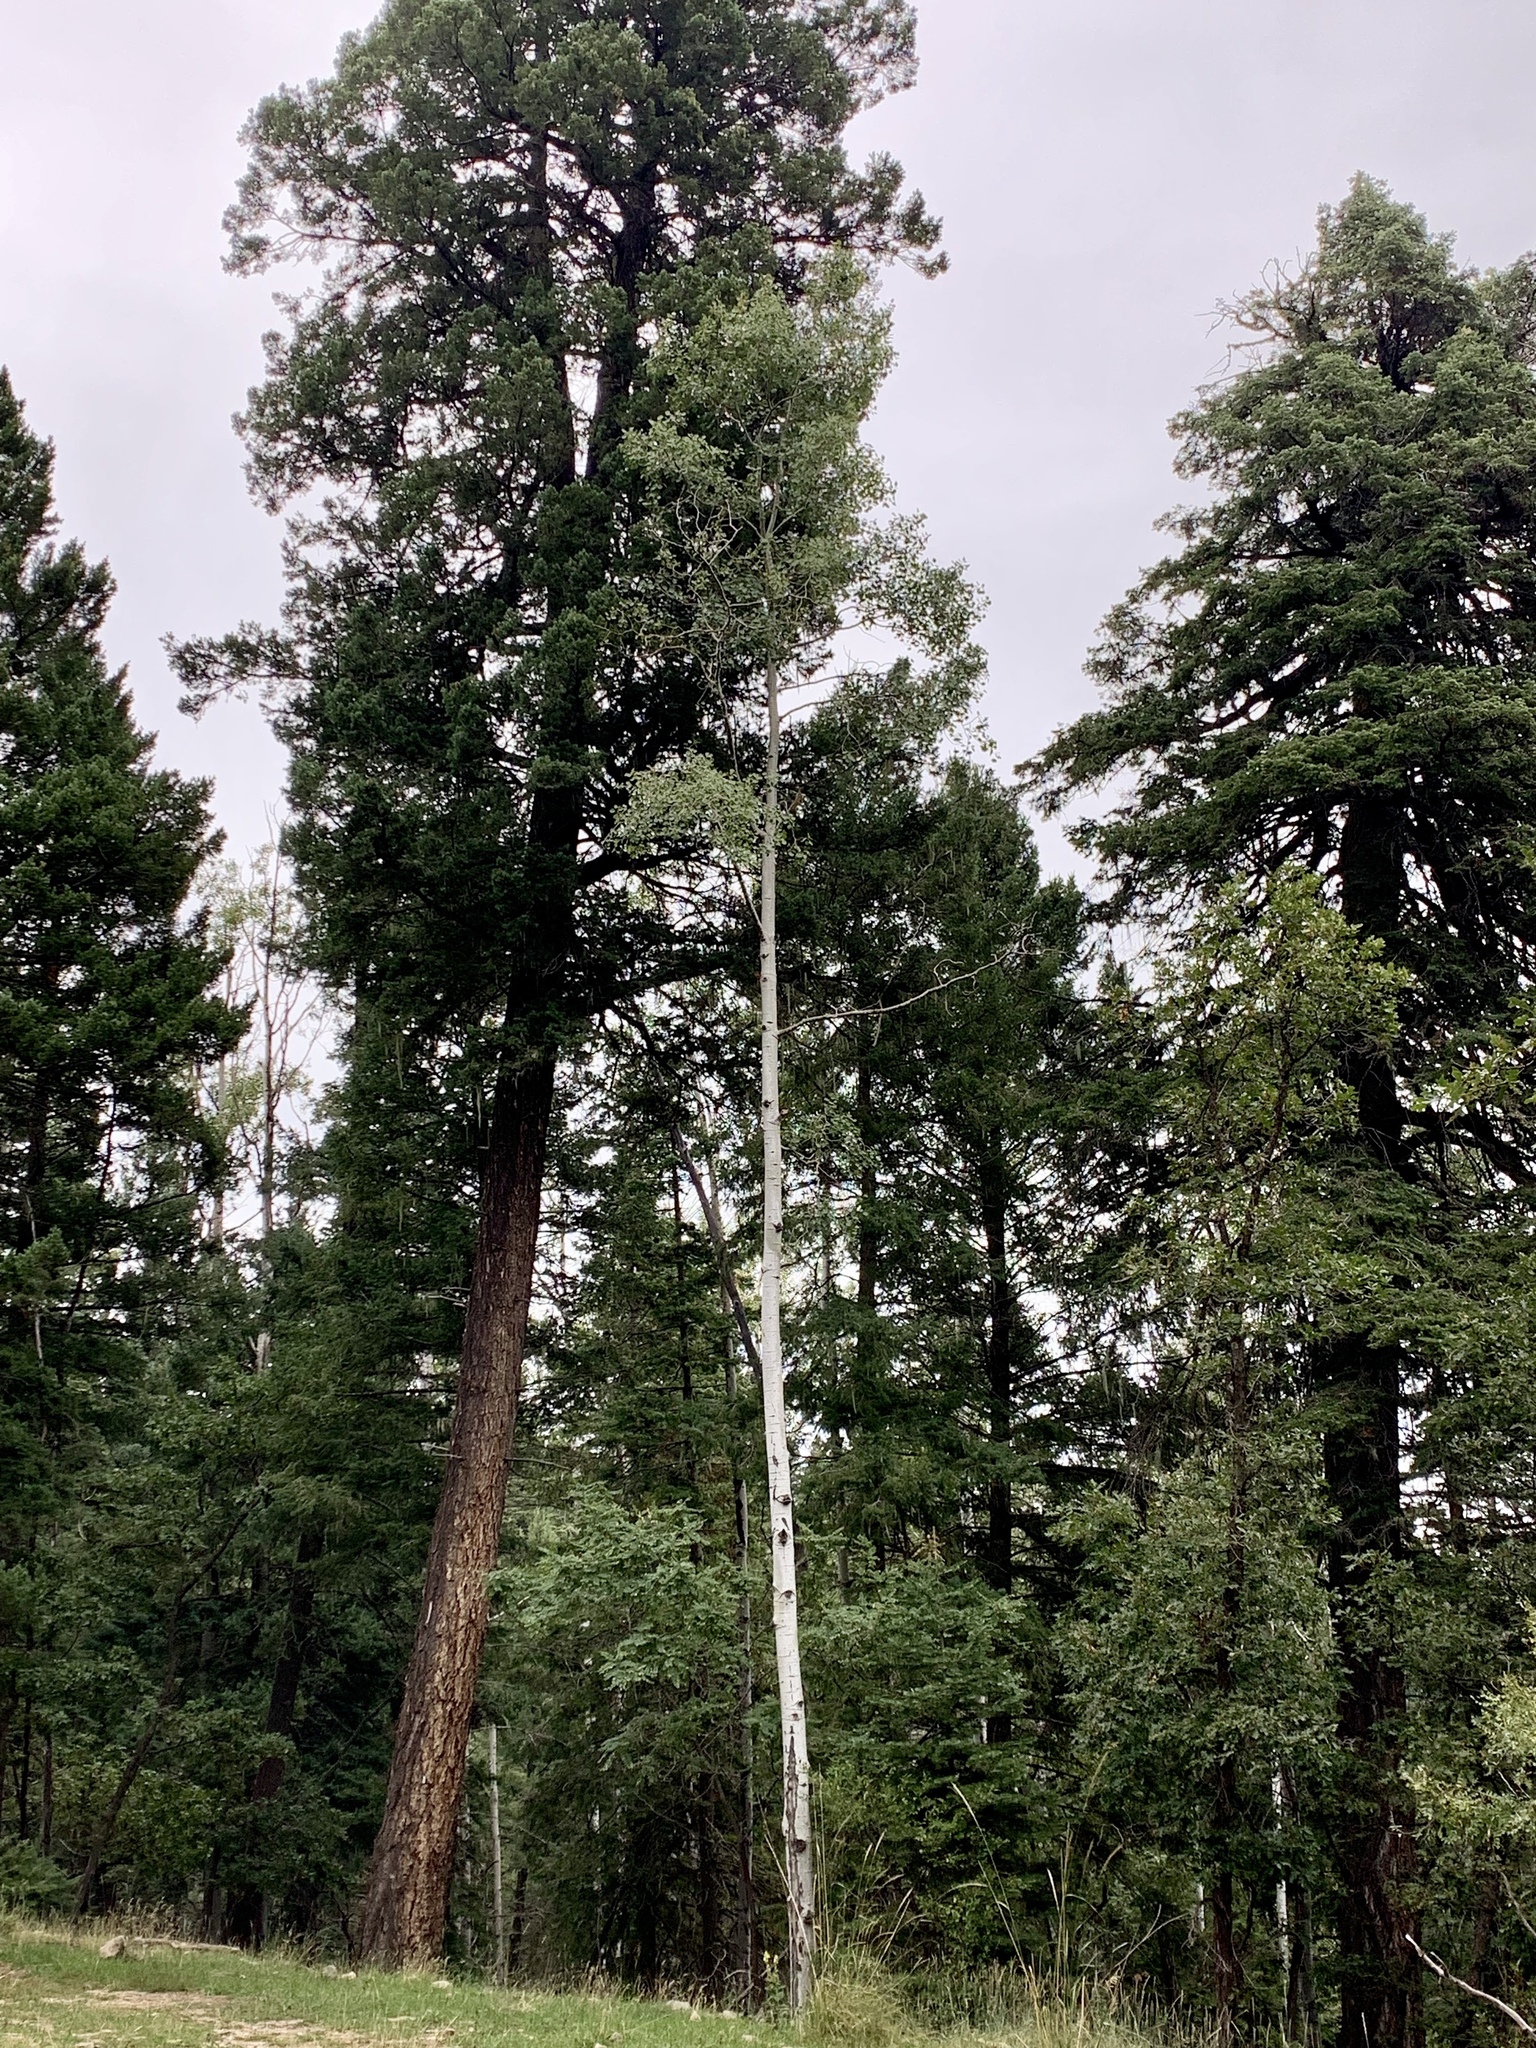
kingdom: Plantae
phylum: Tracheophyta
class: Magnoliopsida
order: Malpighiales
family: Salicaceae
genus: Populus
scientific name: Populus tremuloides
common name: Quaking aspen
